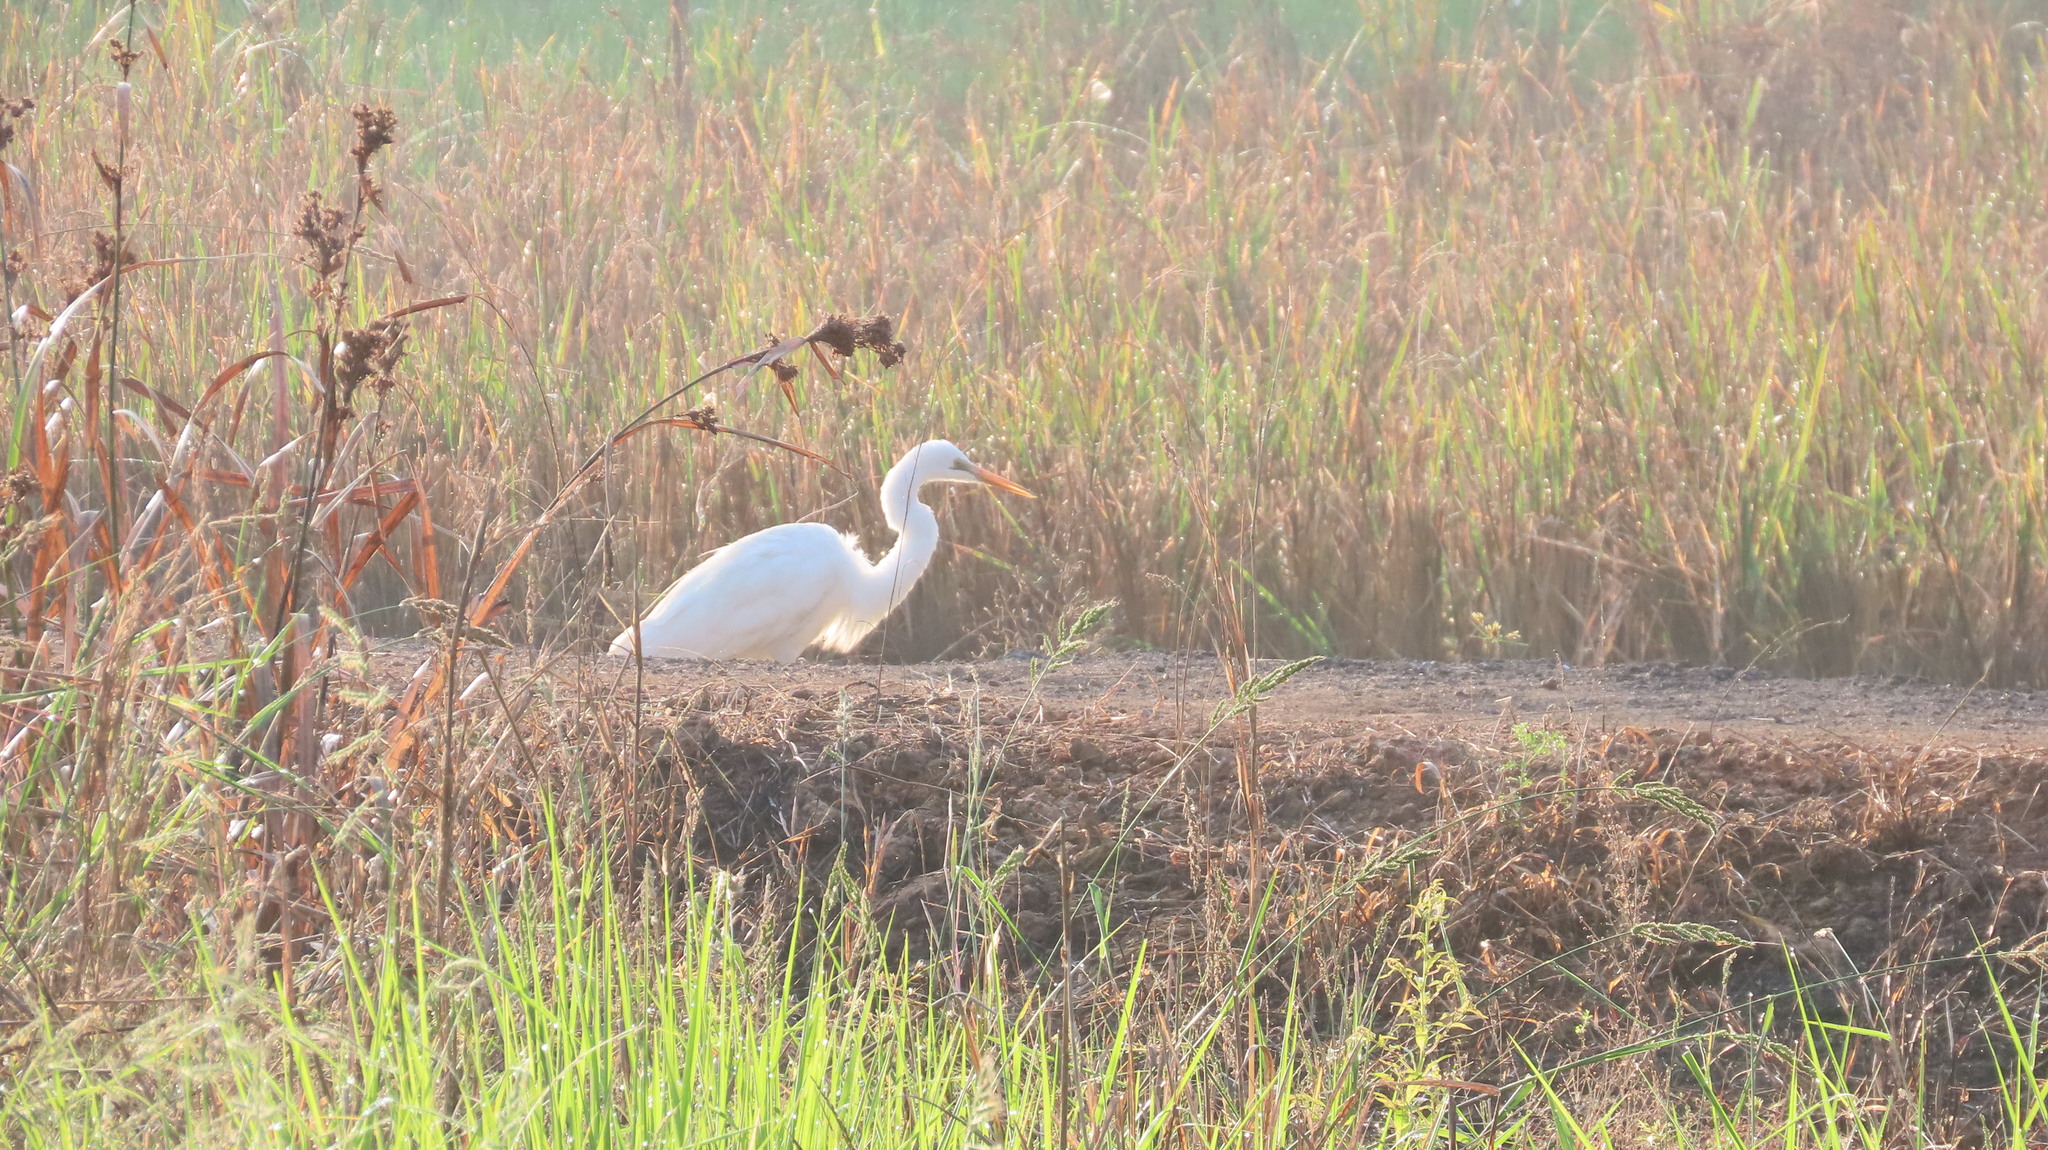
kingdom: Animalia
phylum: Chordata
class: Aves
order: Pelecaniformes
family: Ardeidae
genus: Ardea
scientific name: Ardea alba
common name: Great egret
